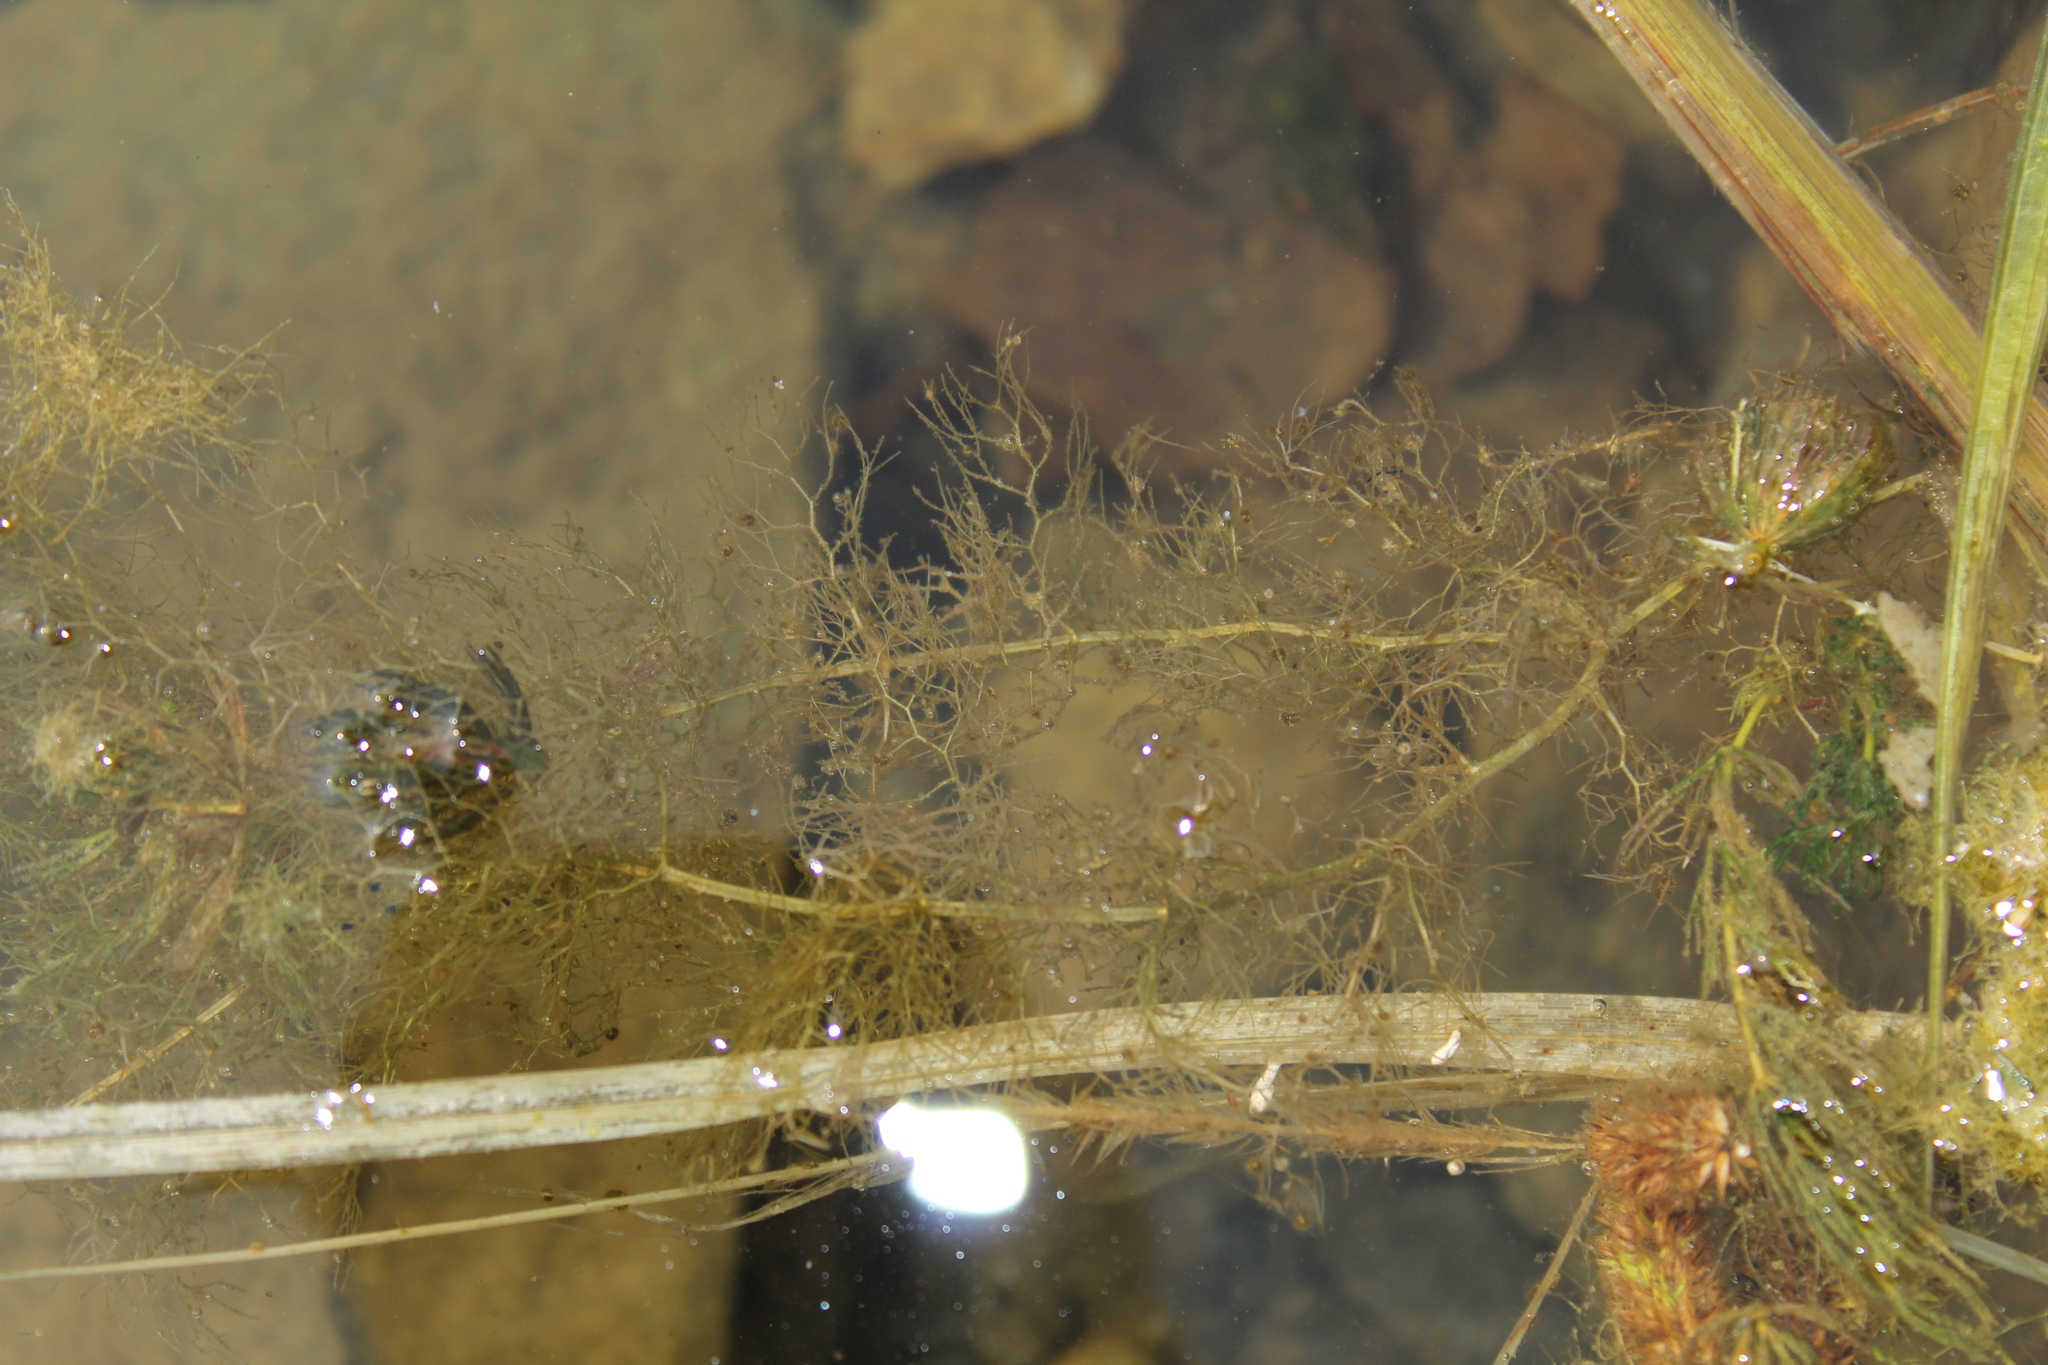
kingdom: Plantae
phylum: Tracheophyta
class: Magnoliopsida
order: Lamiales
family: Lentibulariaceae
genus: Utricularia
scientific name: Utricularia macrorhiza
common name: Common bladderwort
